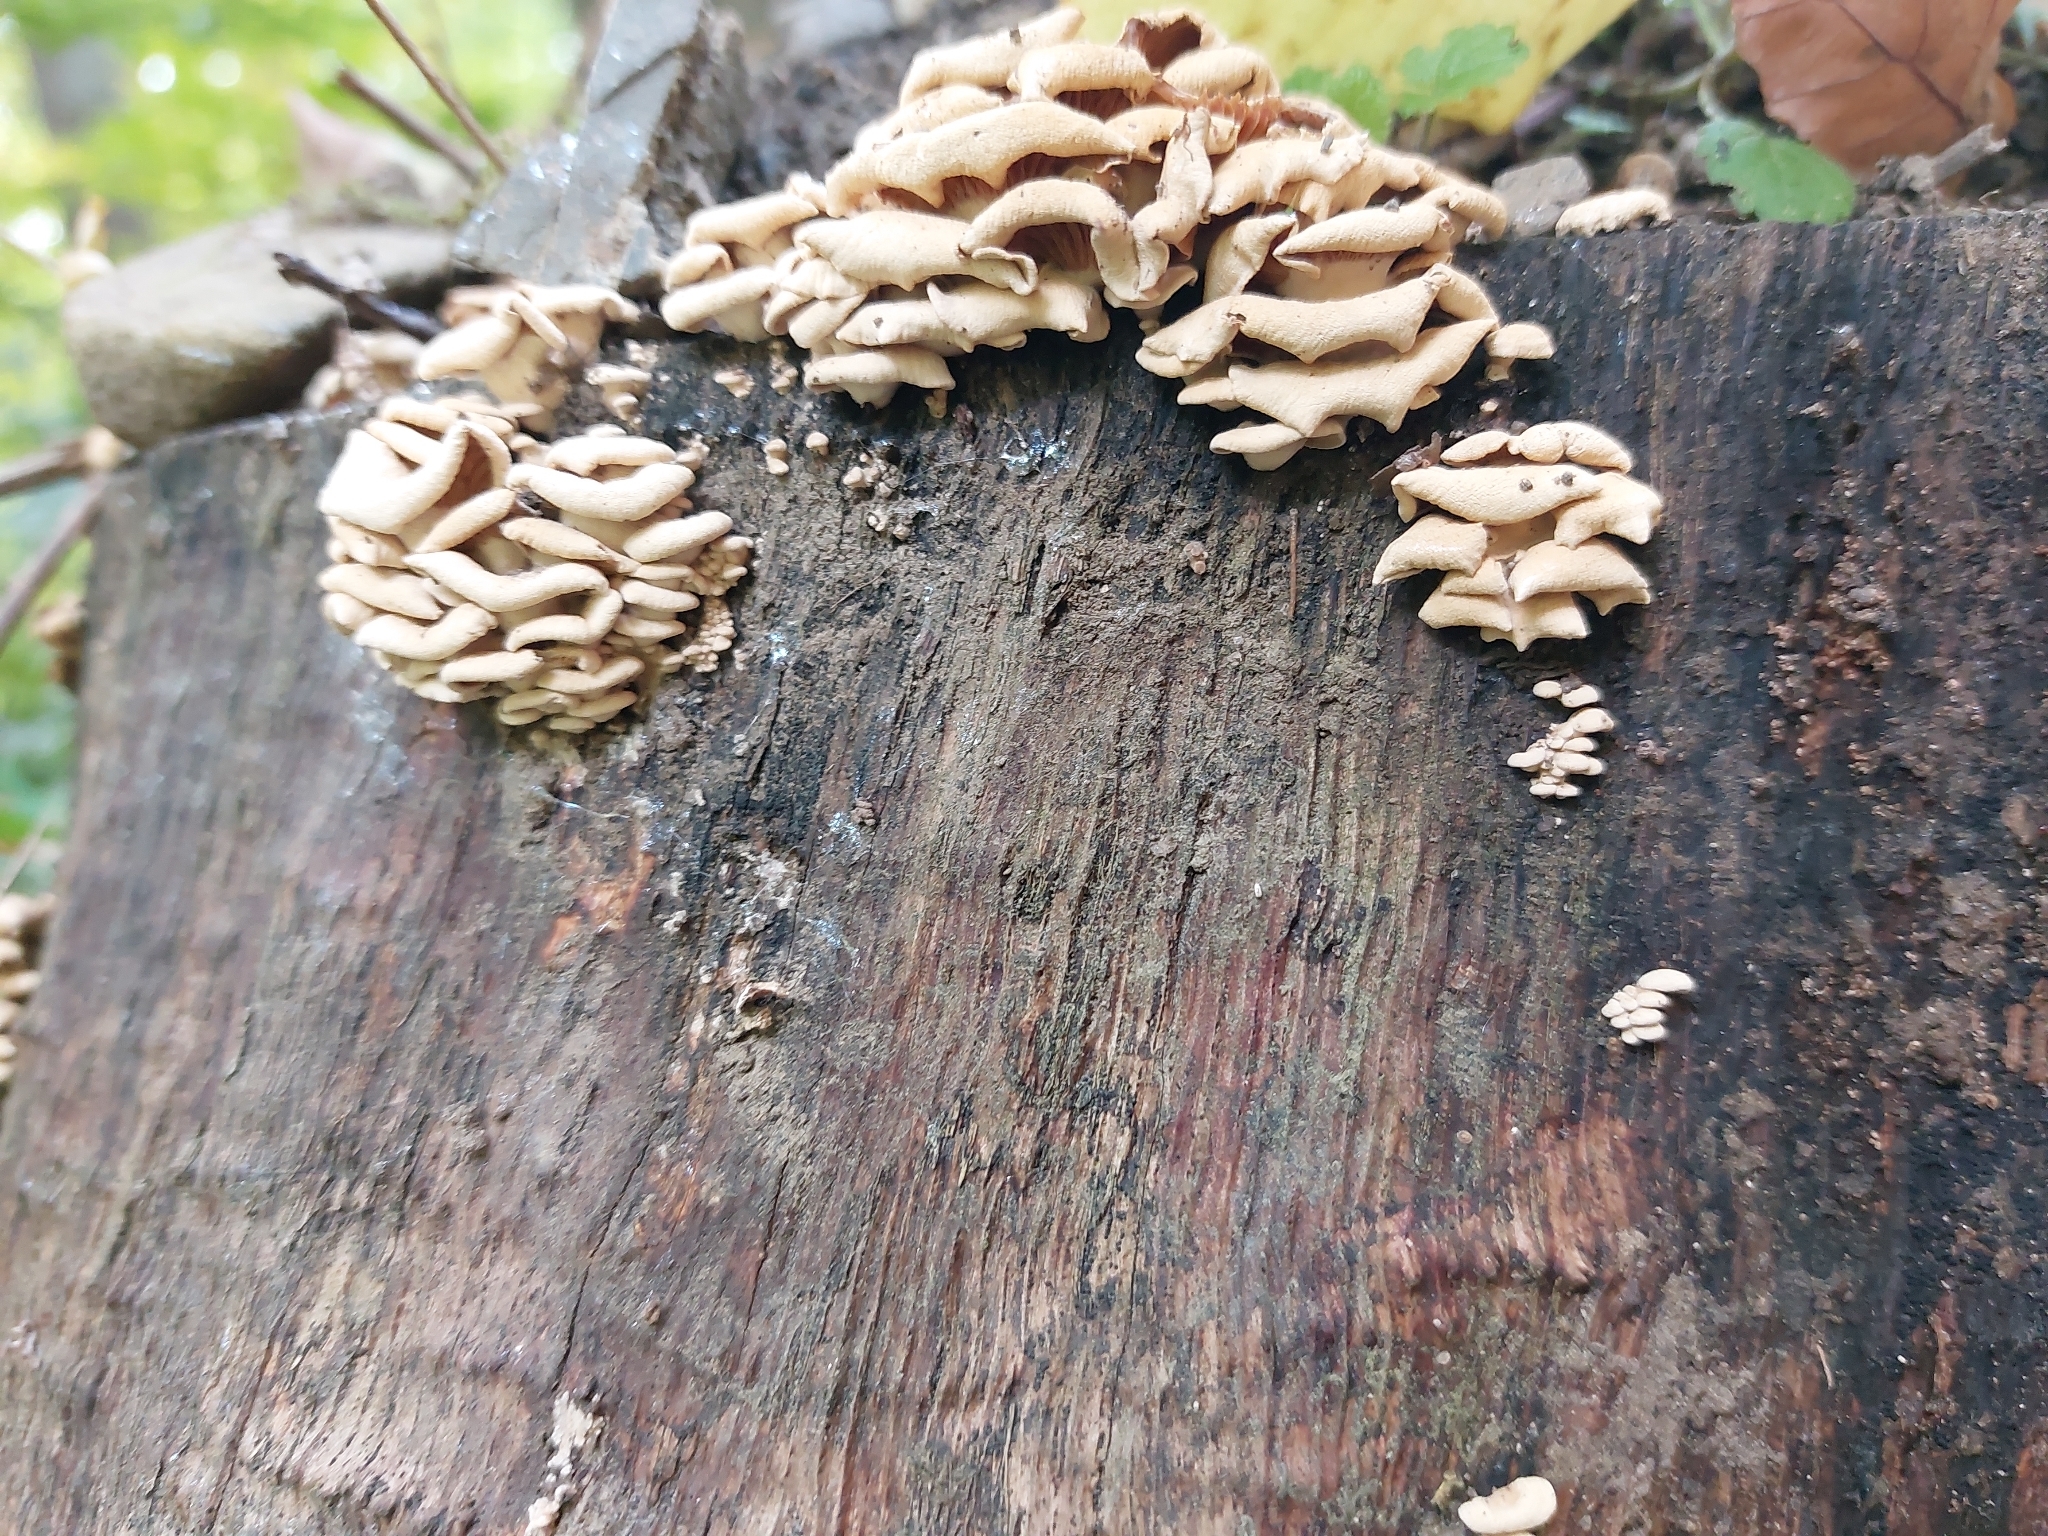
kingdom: Fungi
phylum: Basidiomycota
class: Agaricomycetes
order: Agaricales
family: Mycenaceae
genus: Panellus
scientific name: Panellus stipticus
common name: Bitter oysterling
